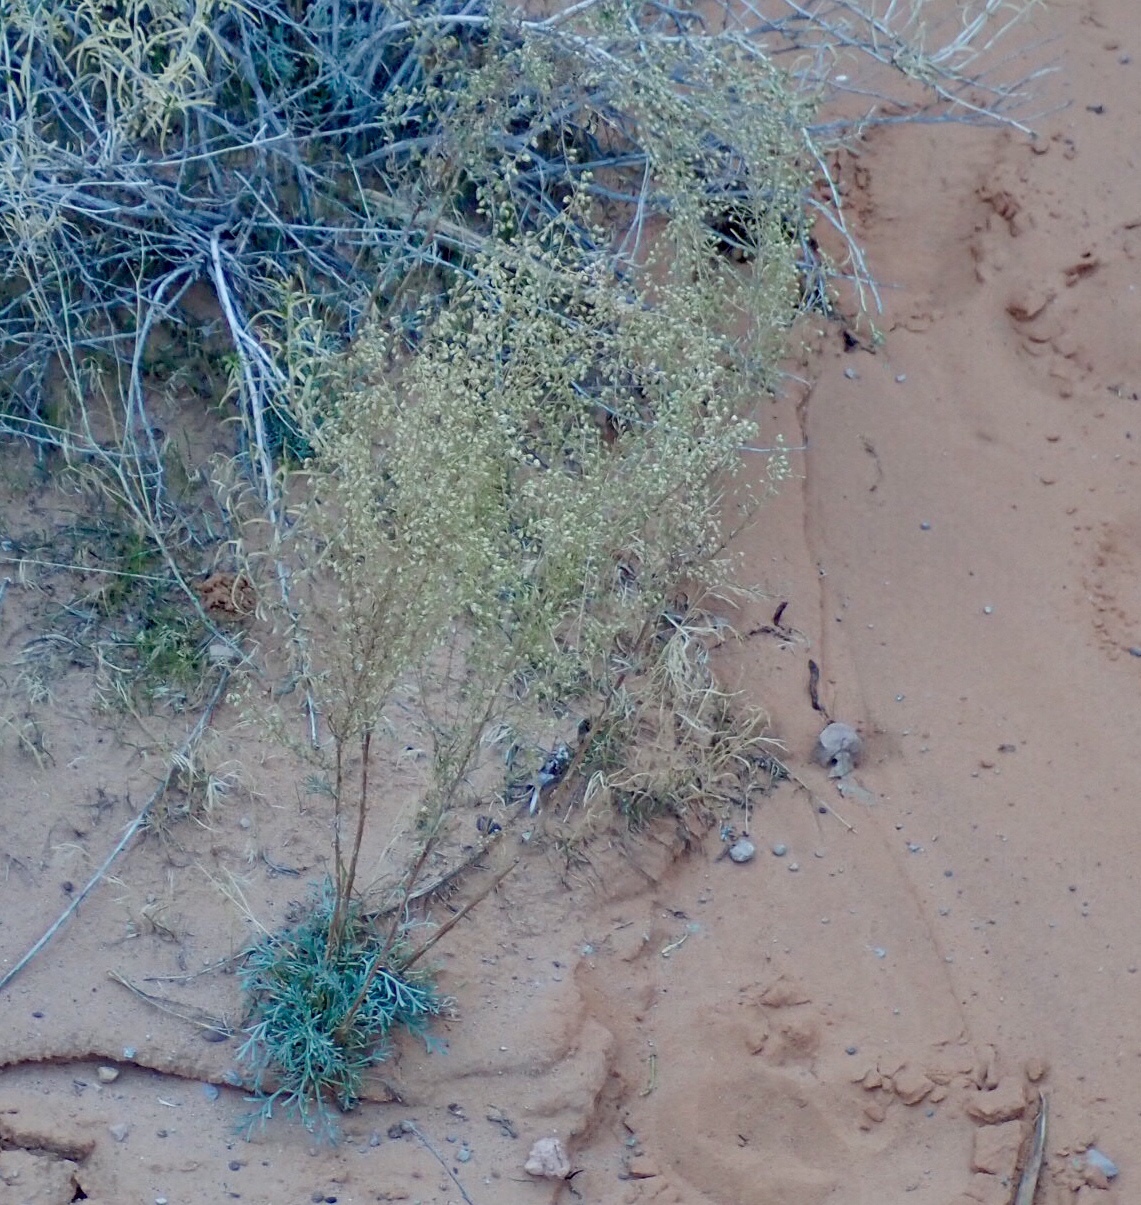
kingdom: Plantae
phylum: Tracheophyta
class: Magnoliopsida
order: Asterales
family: Asteraceae
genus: Artemisia
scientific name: Artemisia campestris
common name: Field wormwood
